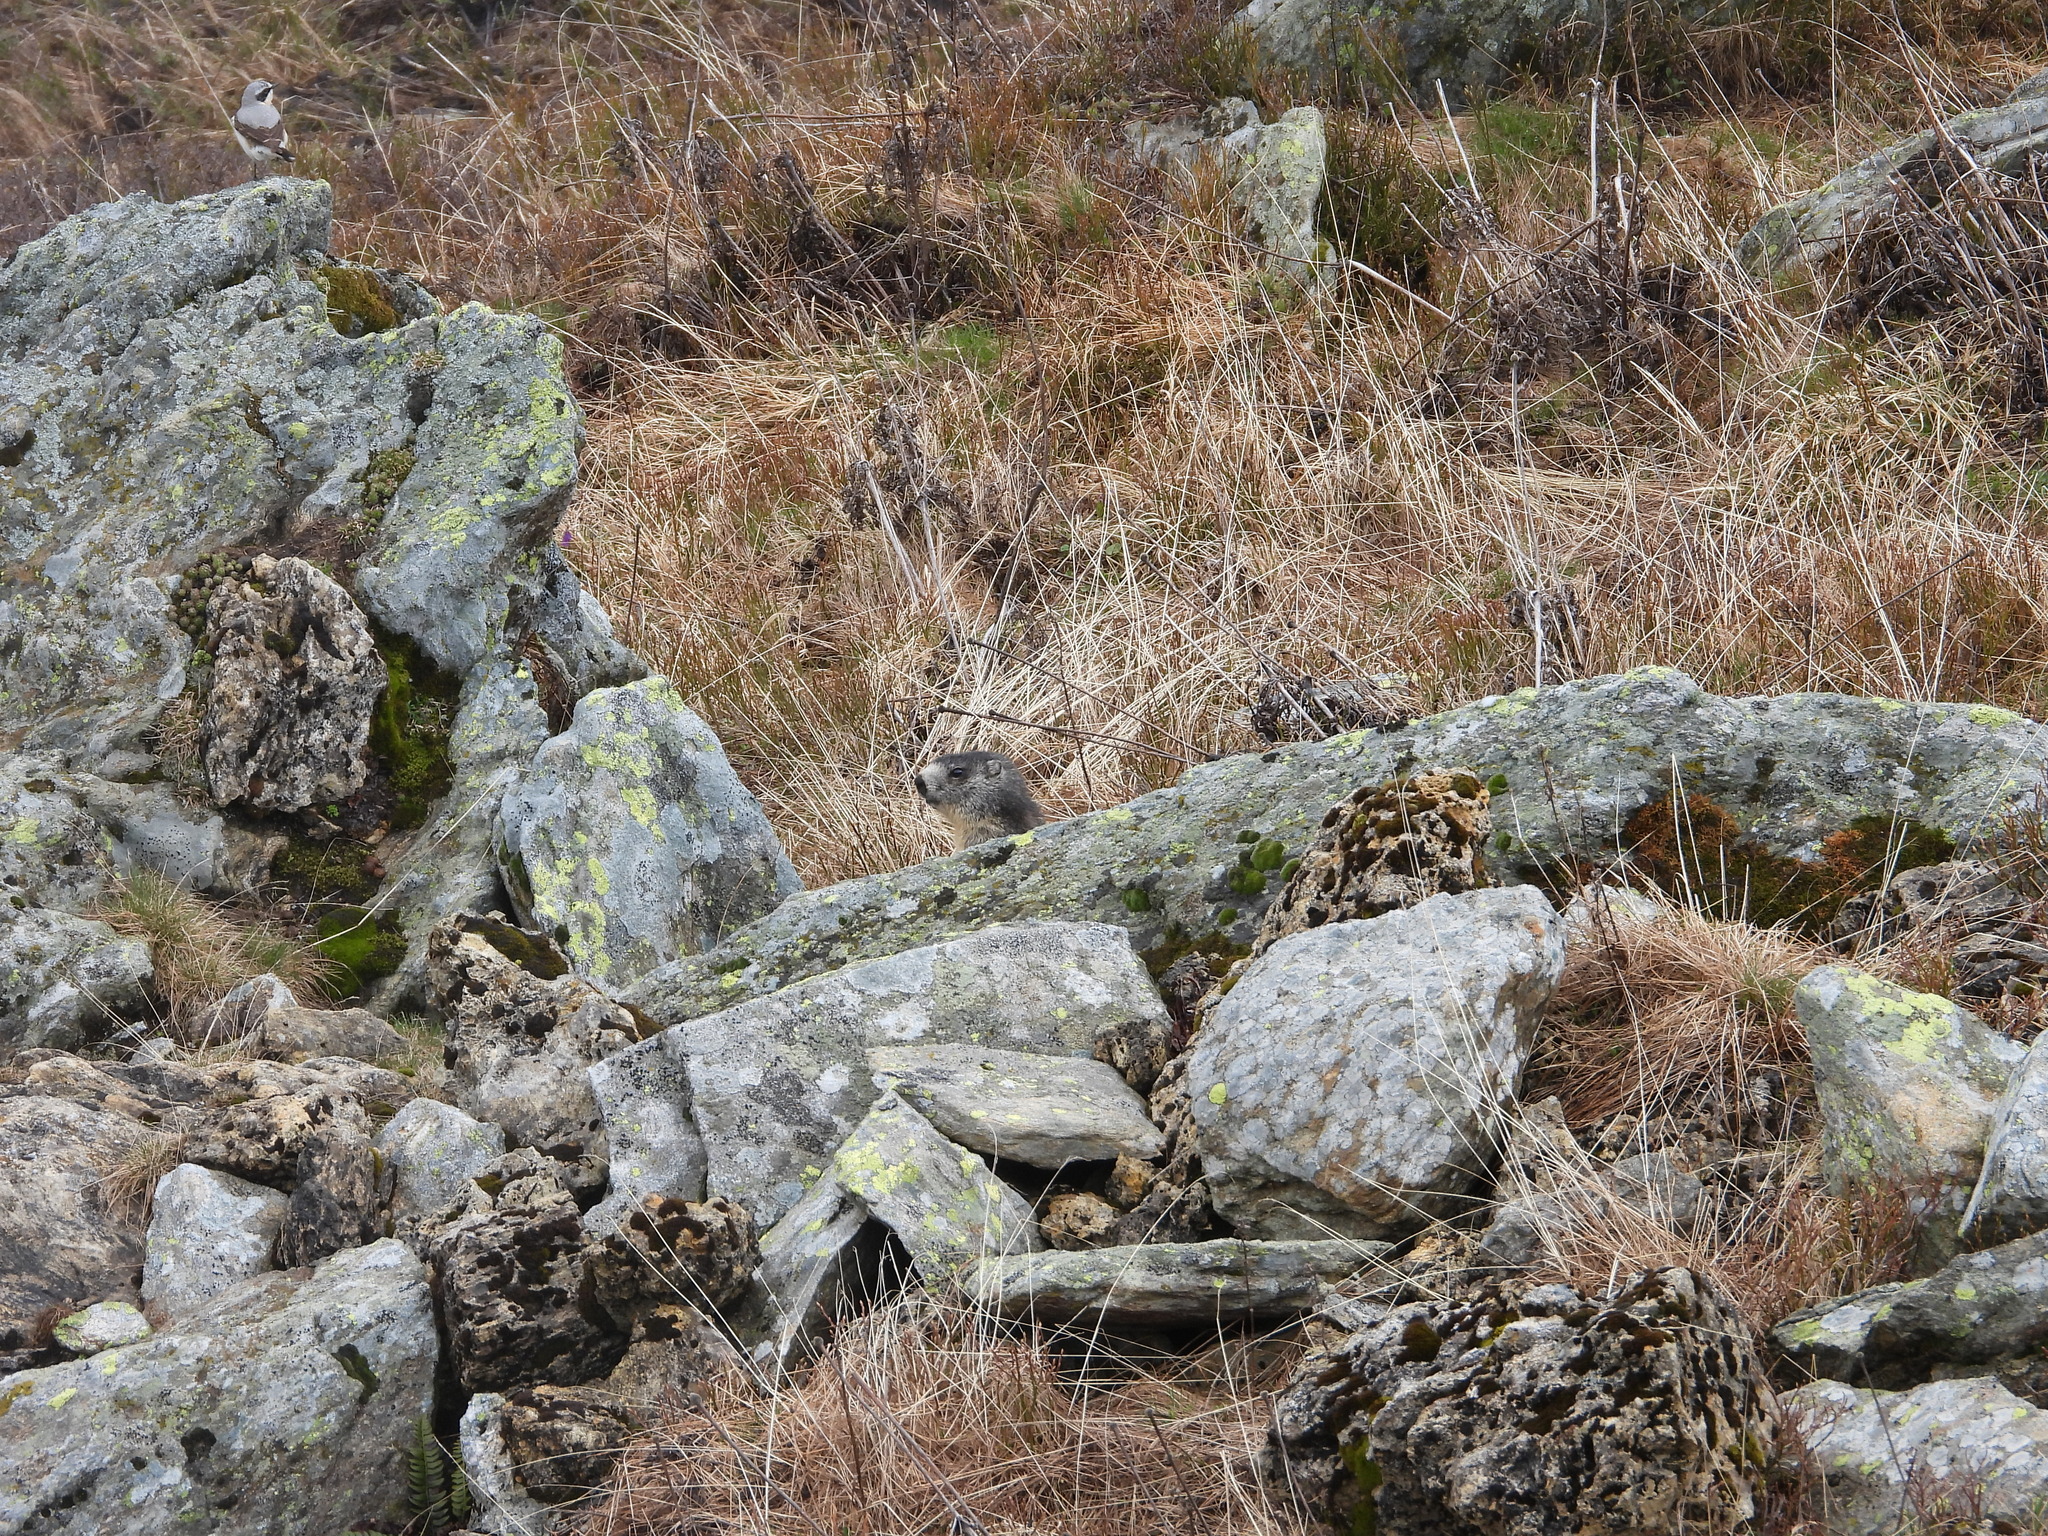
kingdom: Animalia
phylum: Chordata
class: Mammalia
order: Rodentia
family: Sciuridae
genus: Marmota
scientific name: Marmota marmota
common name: Alpine marmot
